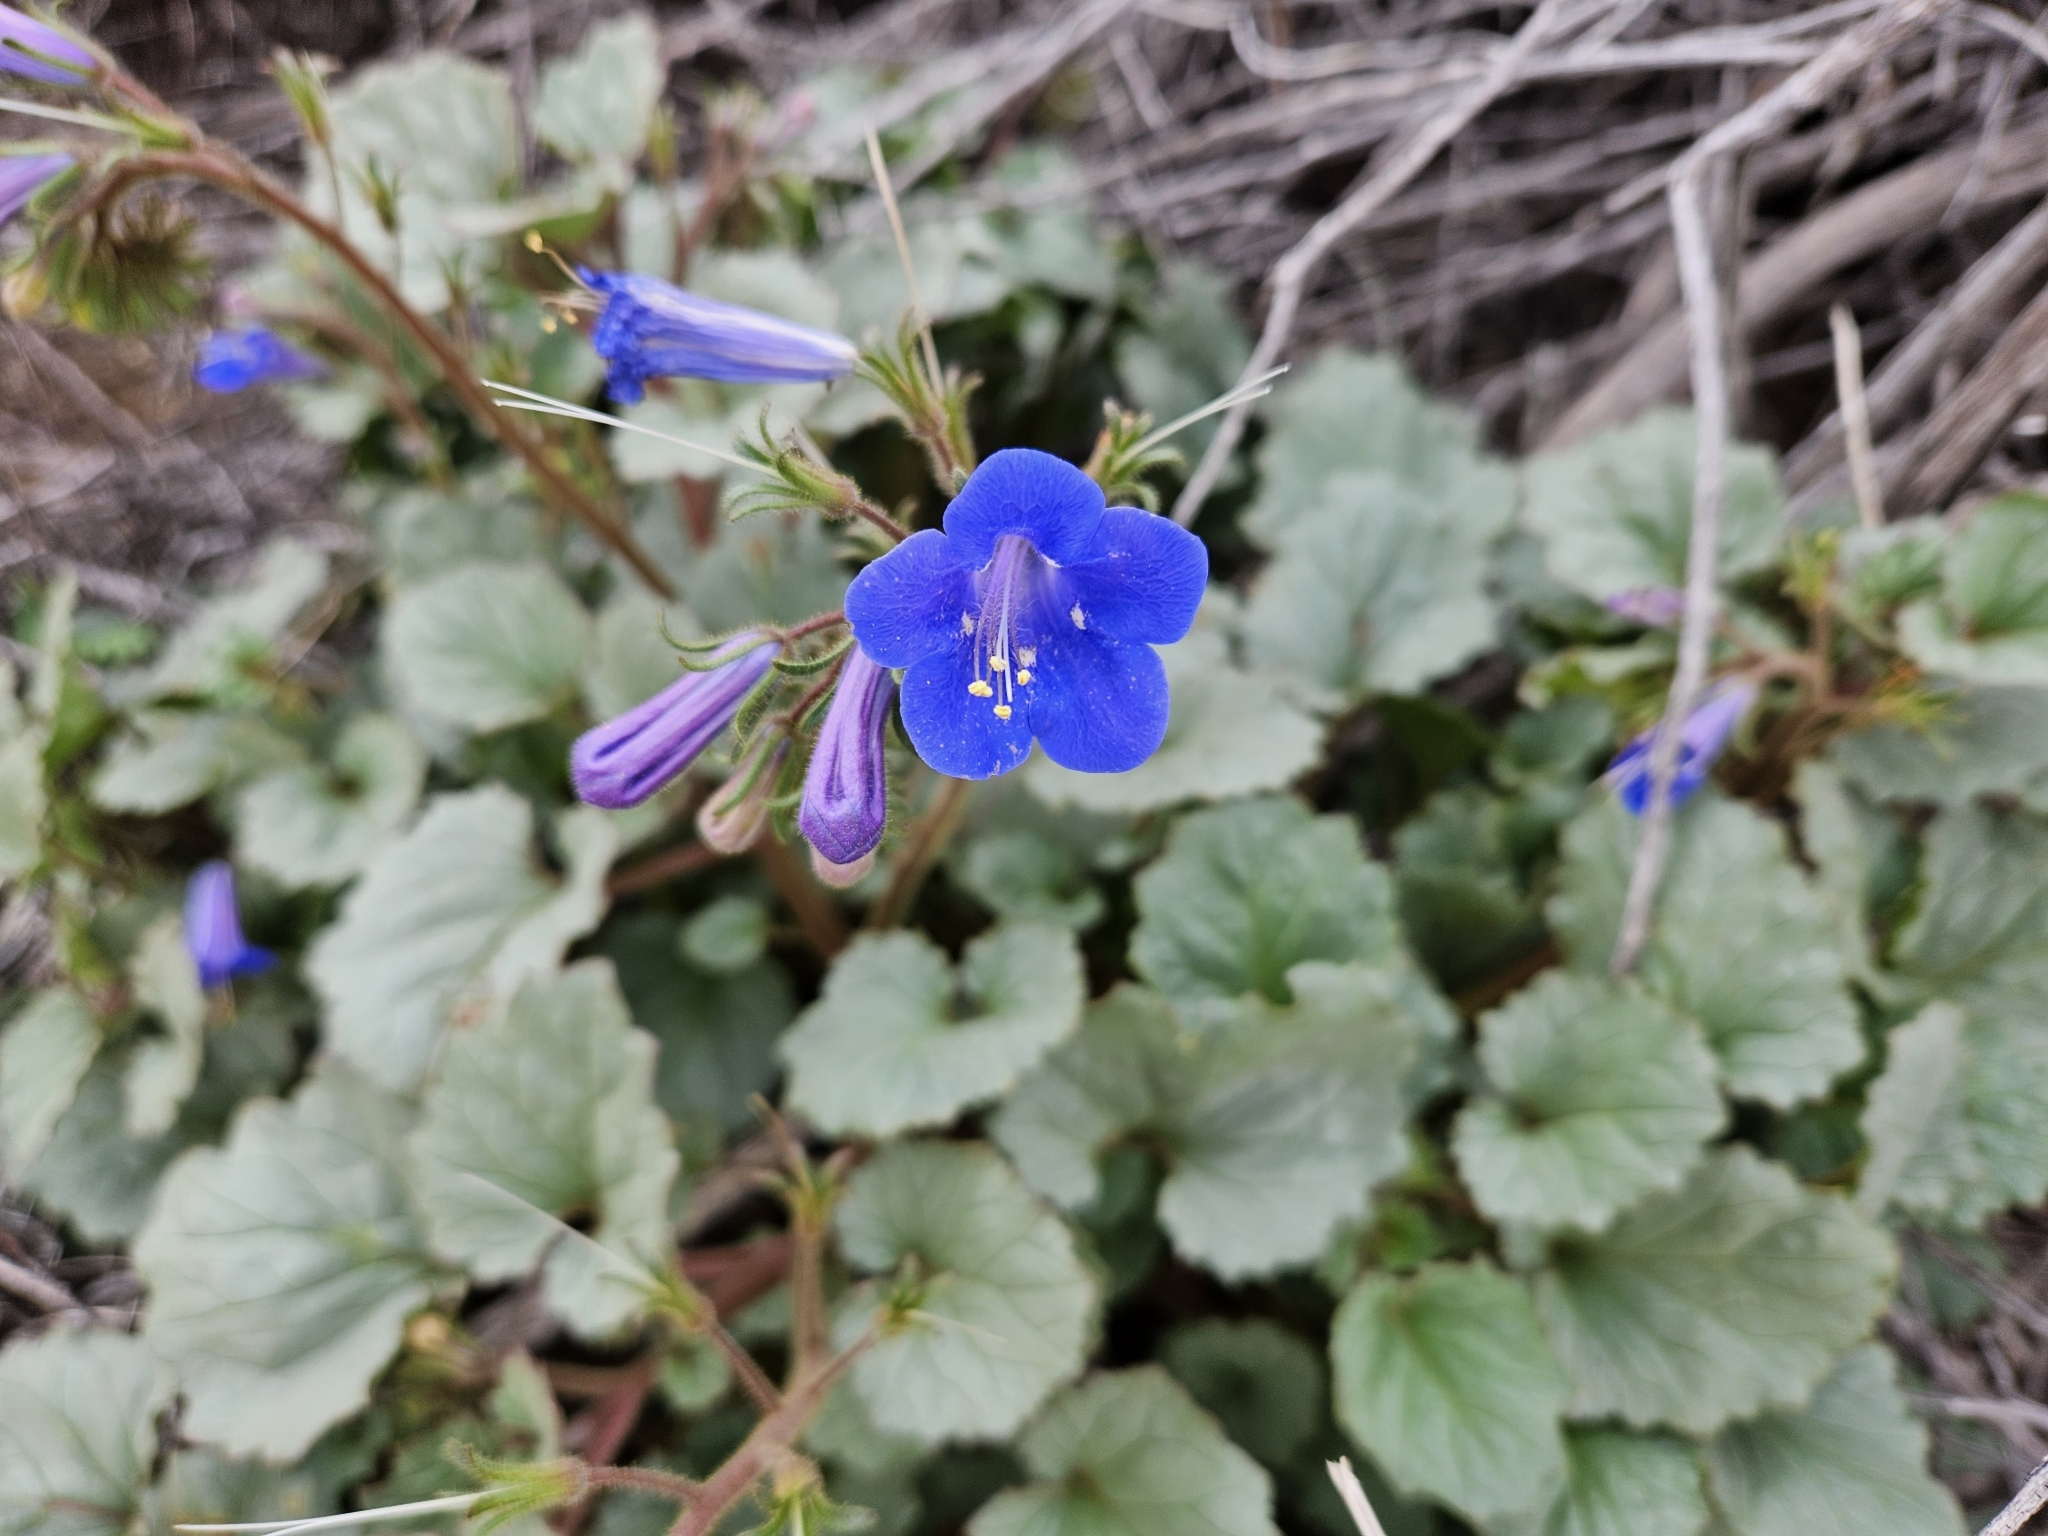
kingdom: Plantae
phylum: Tracheophyta
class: Magnoliopsida
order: Boraginales
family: Hydrophyllaceae
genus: Phacelia
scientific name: Phacelia campanularia
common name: California bluebell
